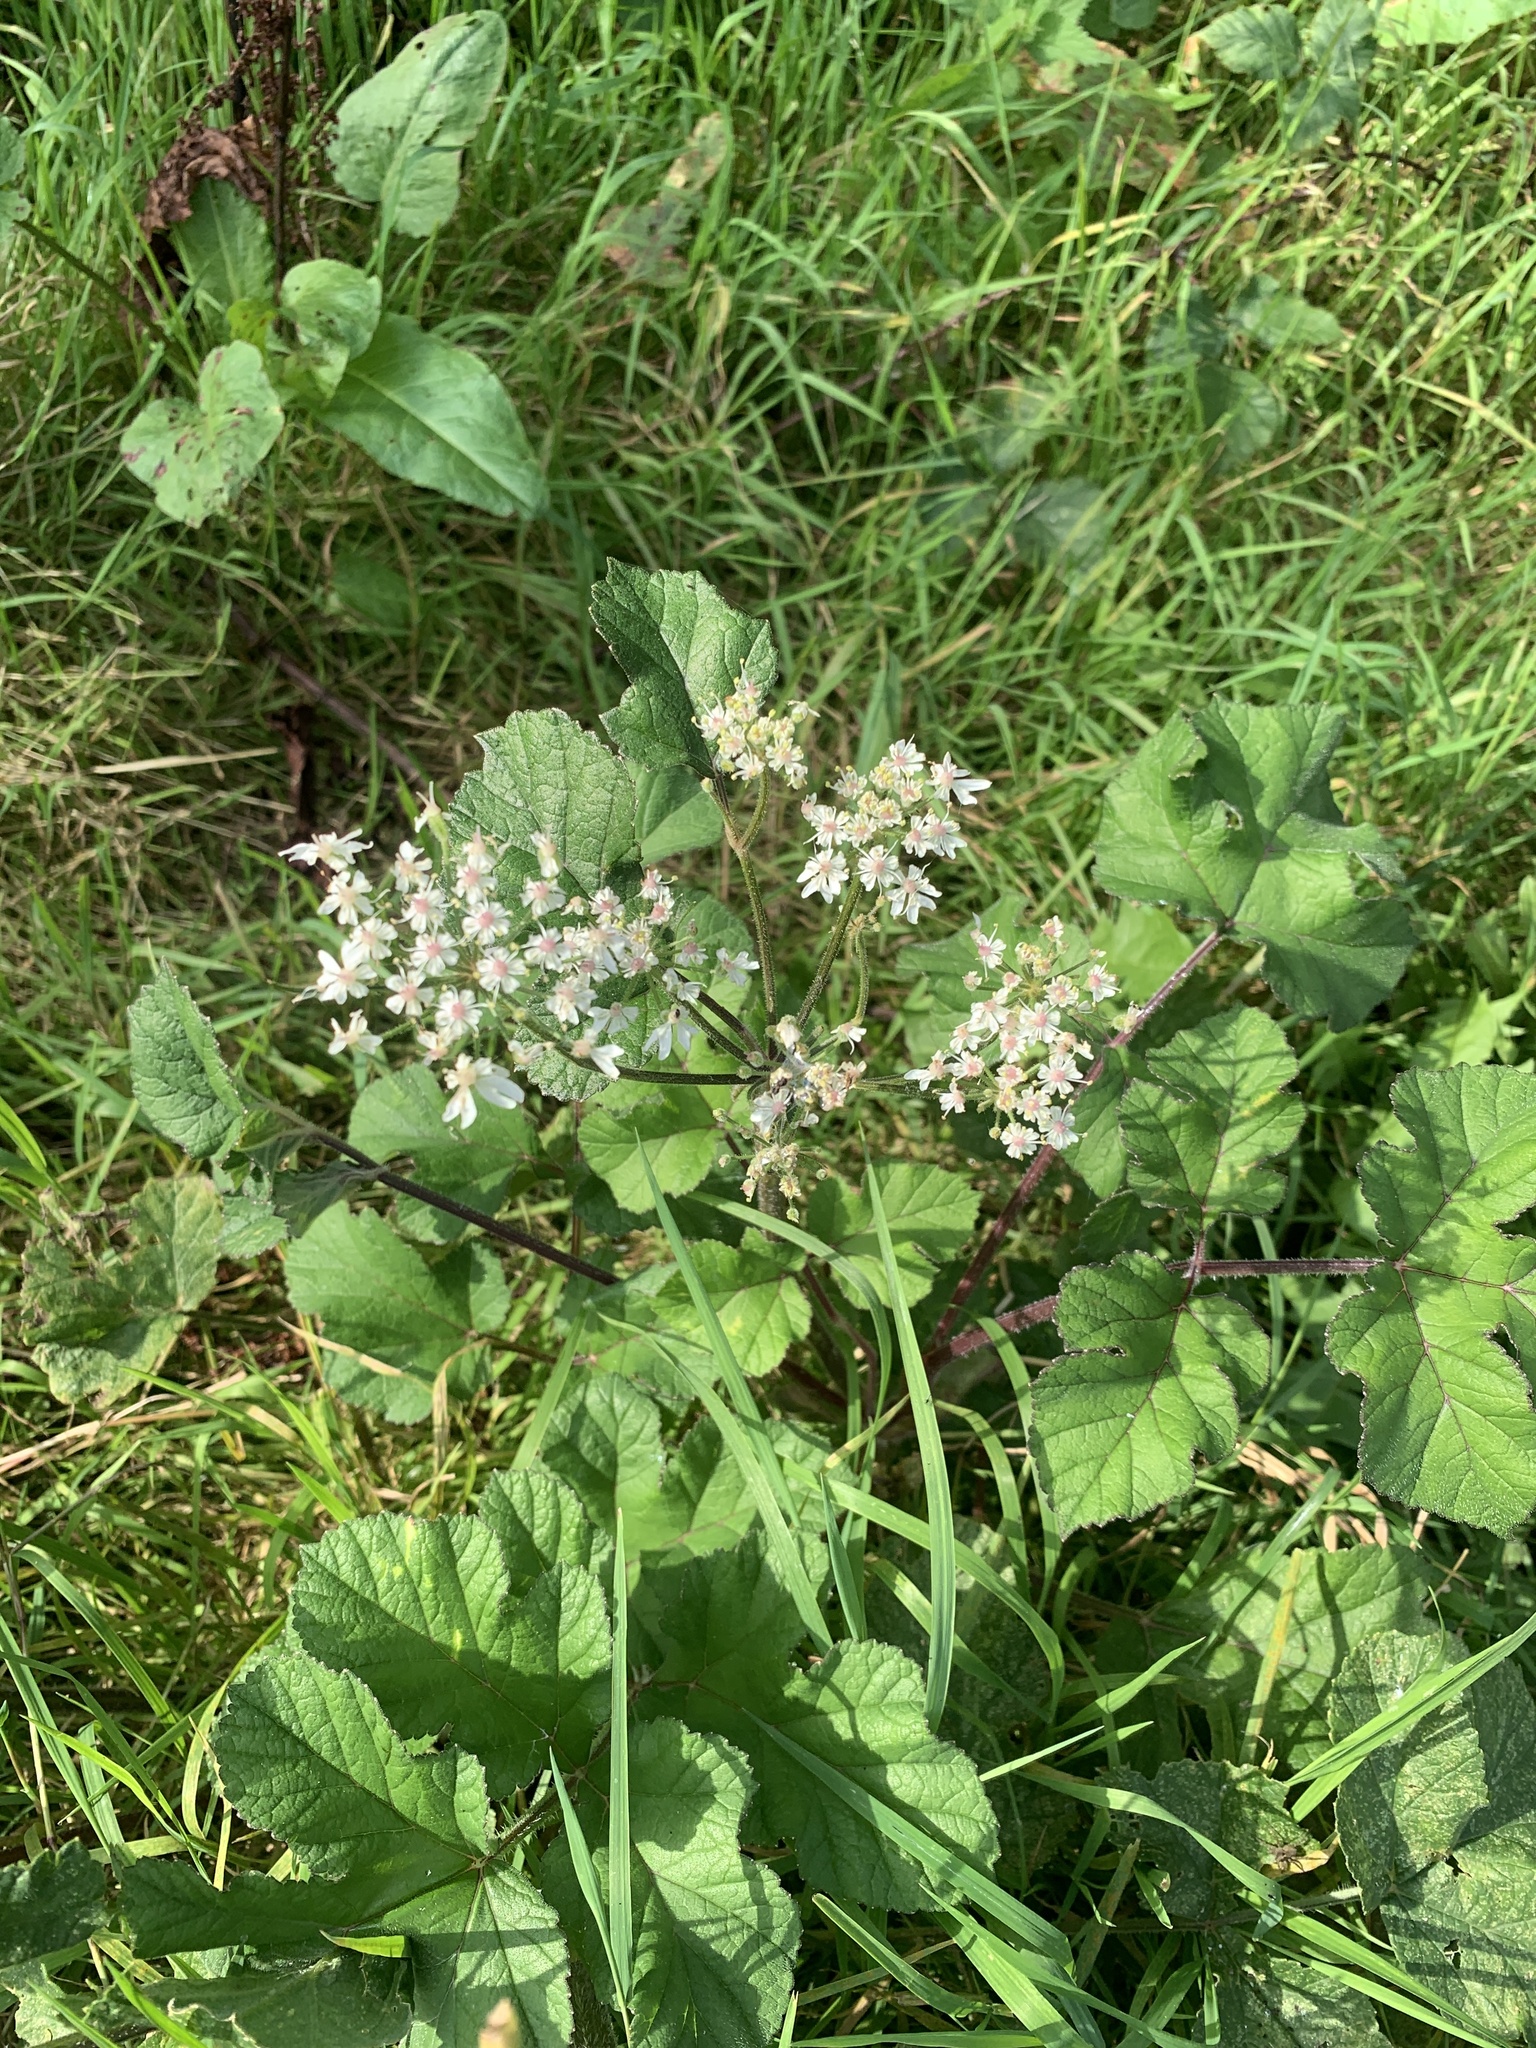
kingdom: Plantae
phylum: Tracheophyta
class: Magnoliopsida
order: Apiales
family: Apiaceae
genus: Heracleum
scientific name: Heracleum sphondylium
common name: Hogweed
